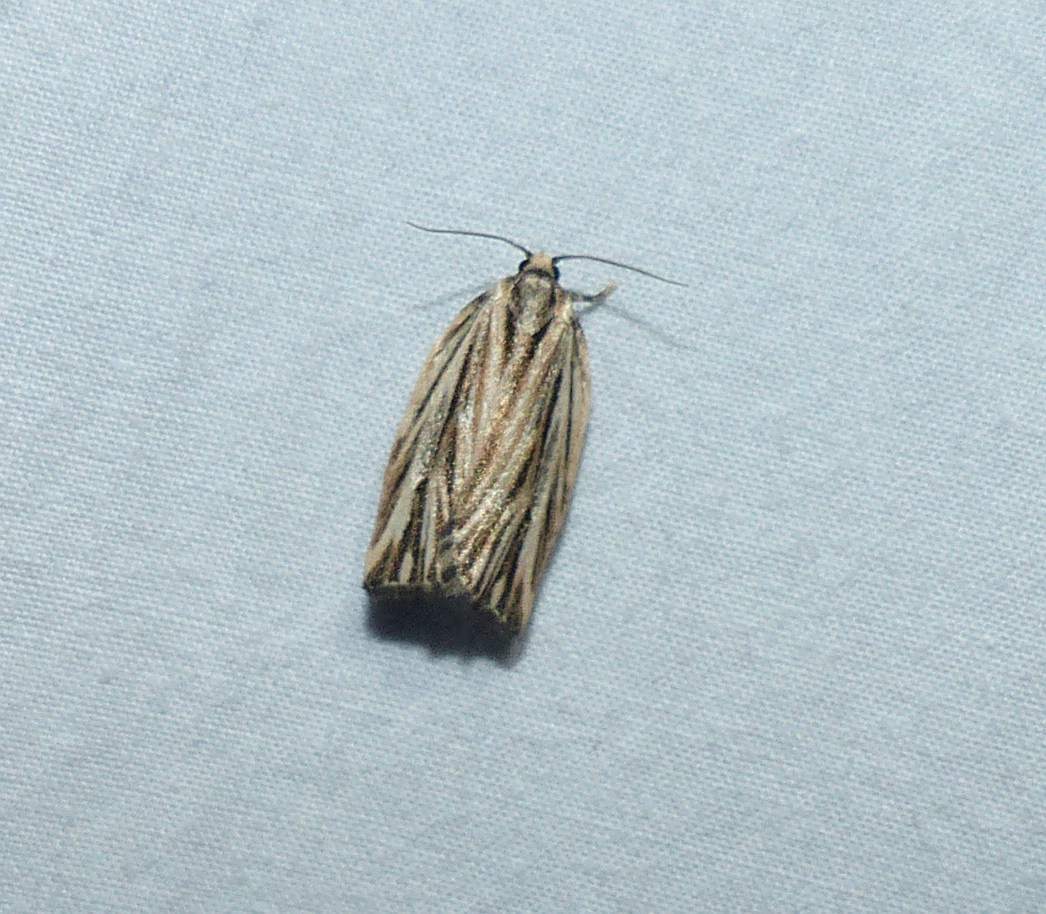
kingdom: Animalia
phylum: Arthropoda
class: Insecta
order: Lepidoptera
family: Tortricidae
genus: Archips
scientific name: Archips strianus
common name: Striated tortrix moth
